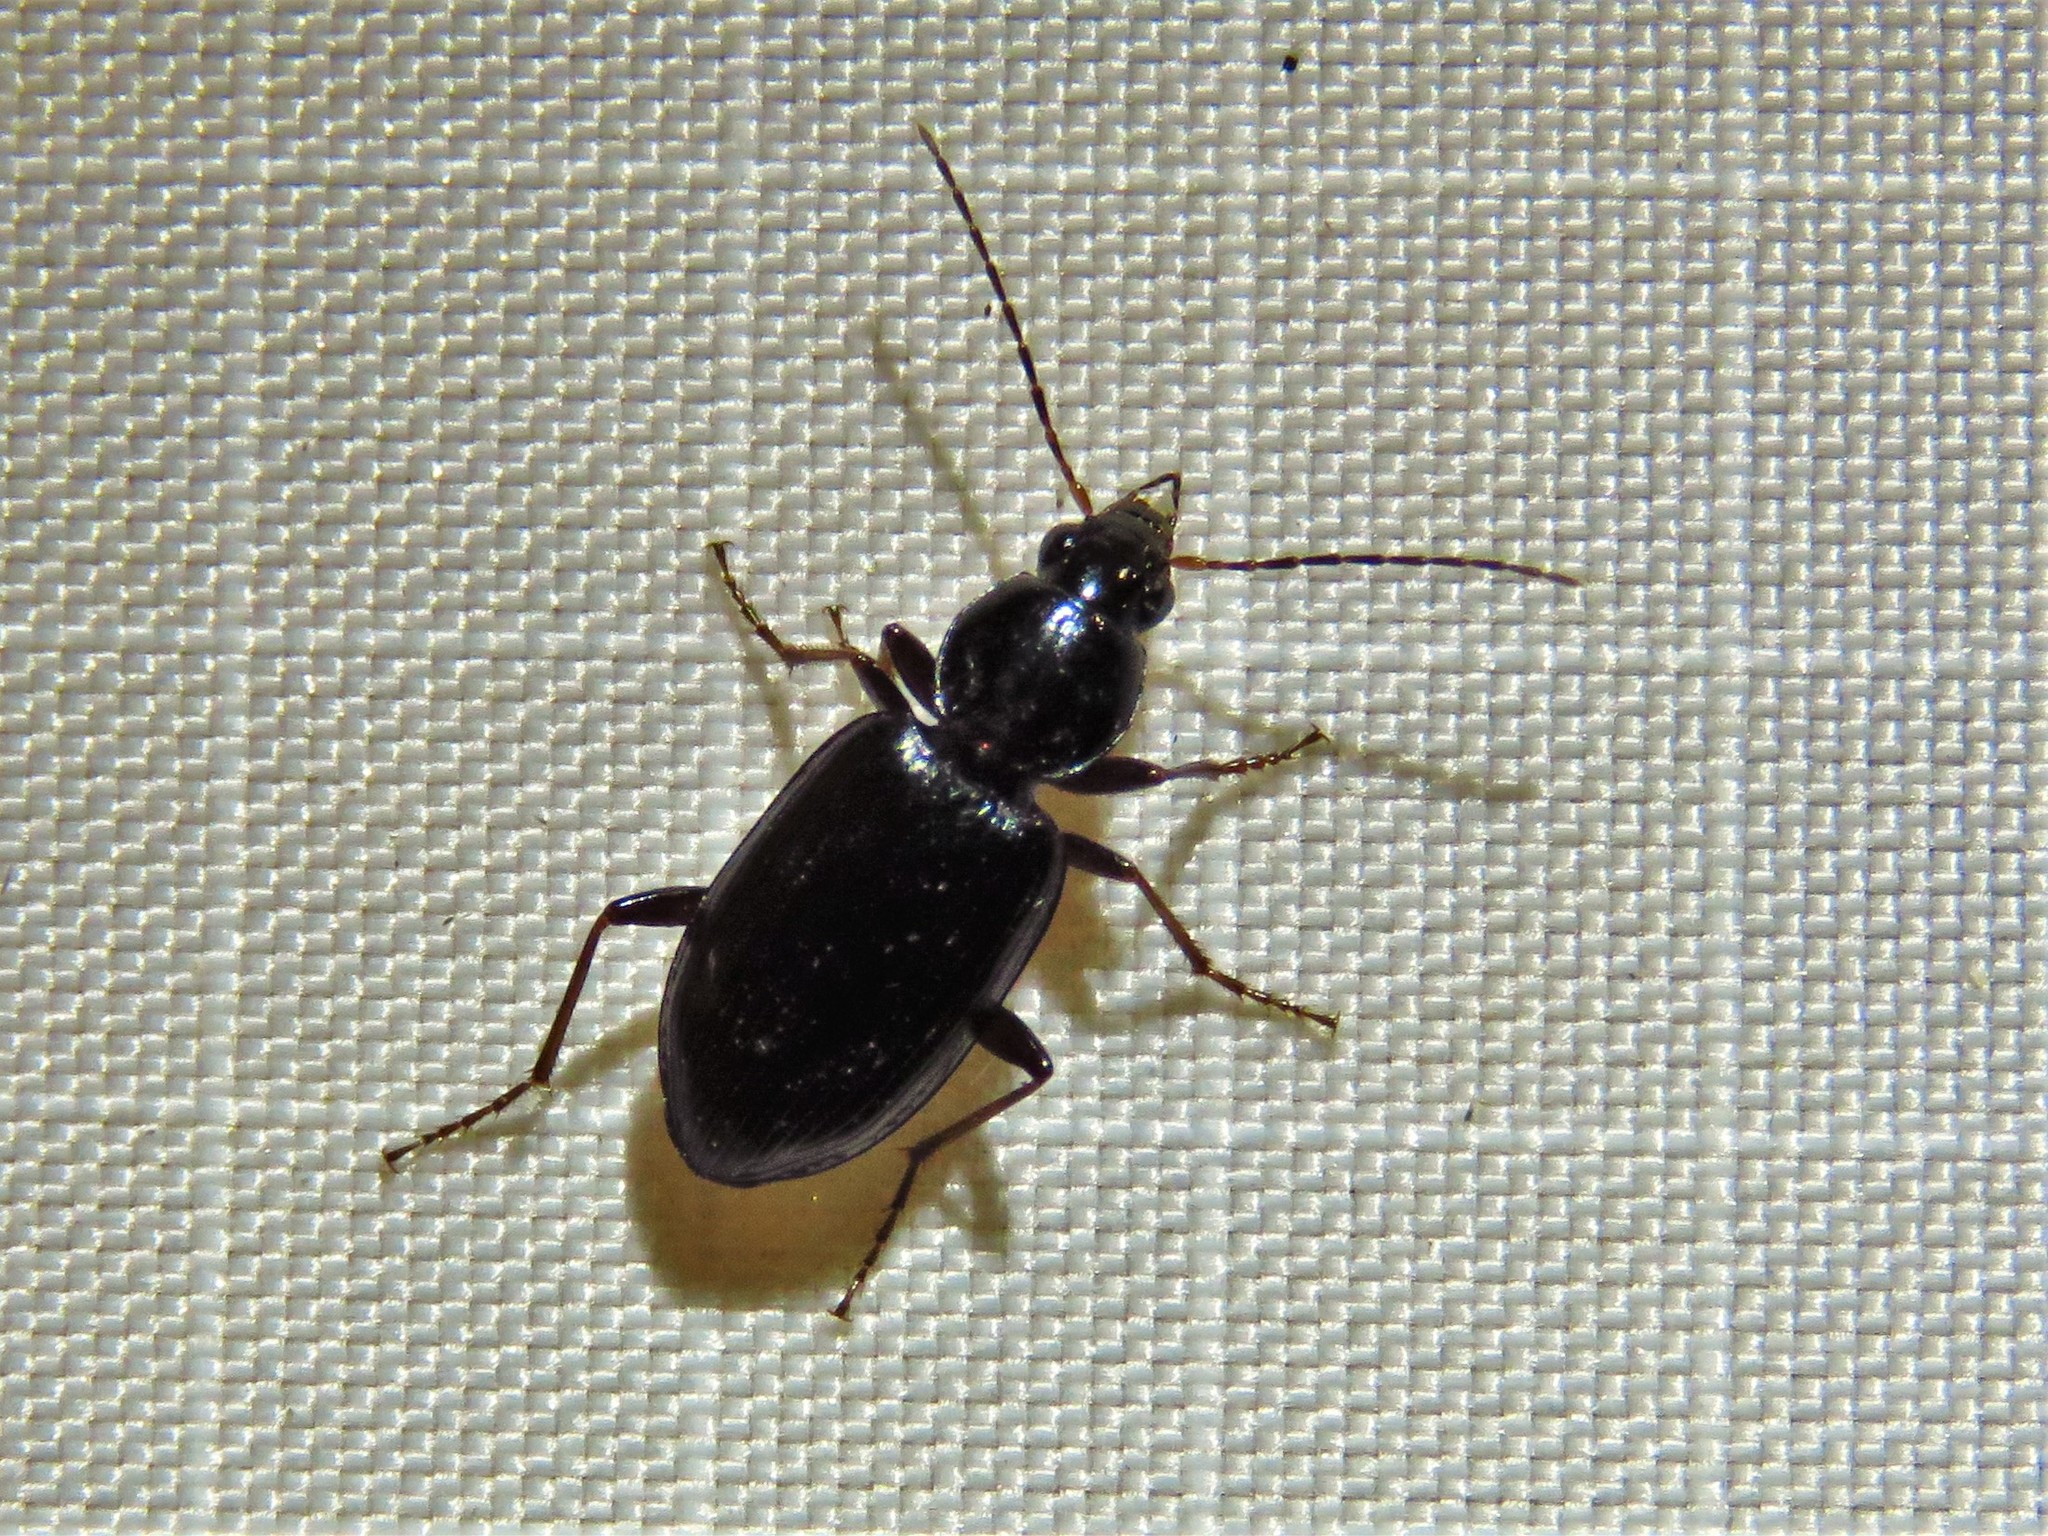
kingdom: Animalia
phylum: Arthropoda
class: Insecta
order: Coleoptera
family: Carabidae
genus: Agonum
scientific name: Agonum punctiforme
